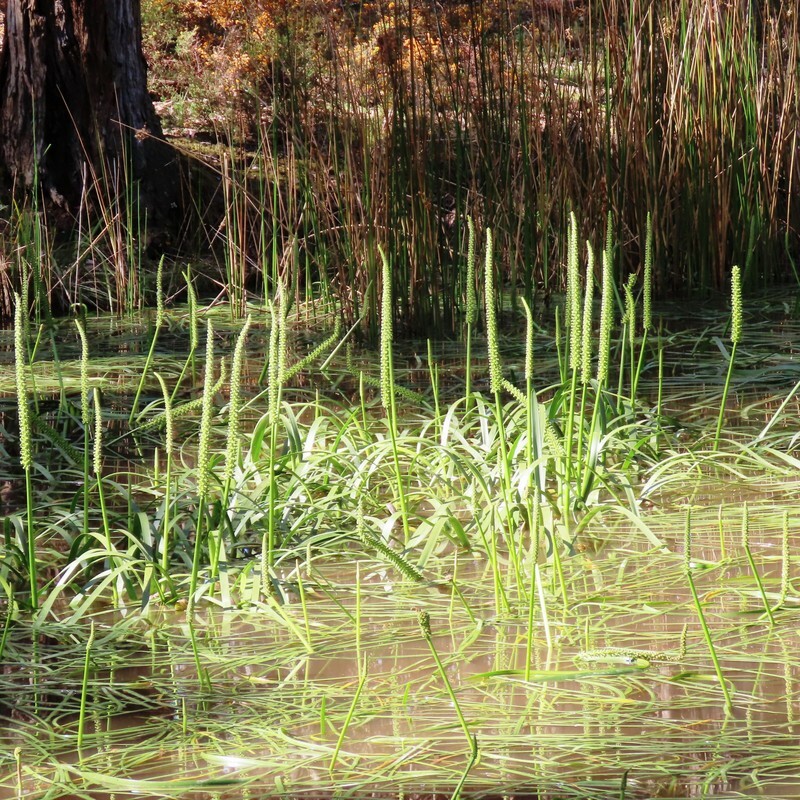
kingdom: Plantae
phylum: Tracheophyta
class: Liliopsida
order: Alismatales
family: Juncaginaceae
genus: Cycnogeton
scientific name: Cycnogeton procerum
